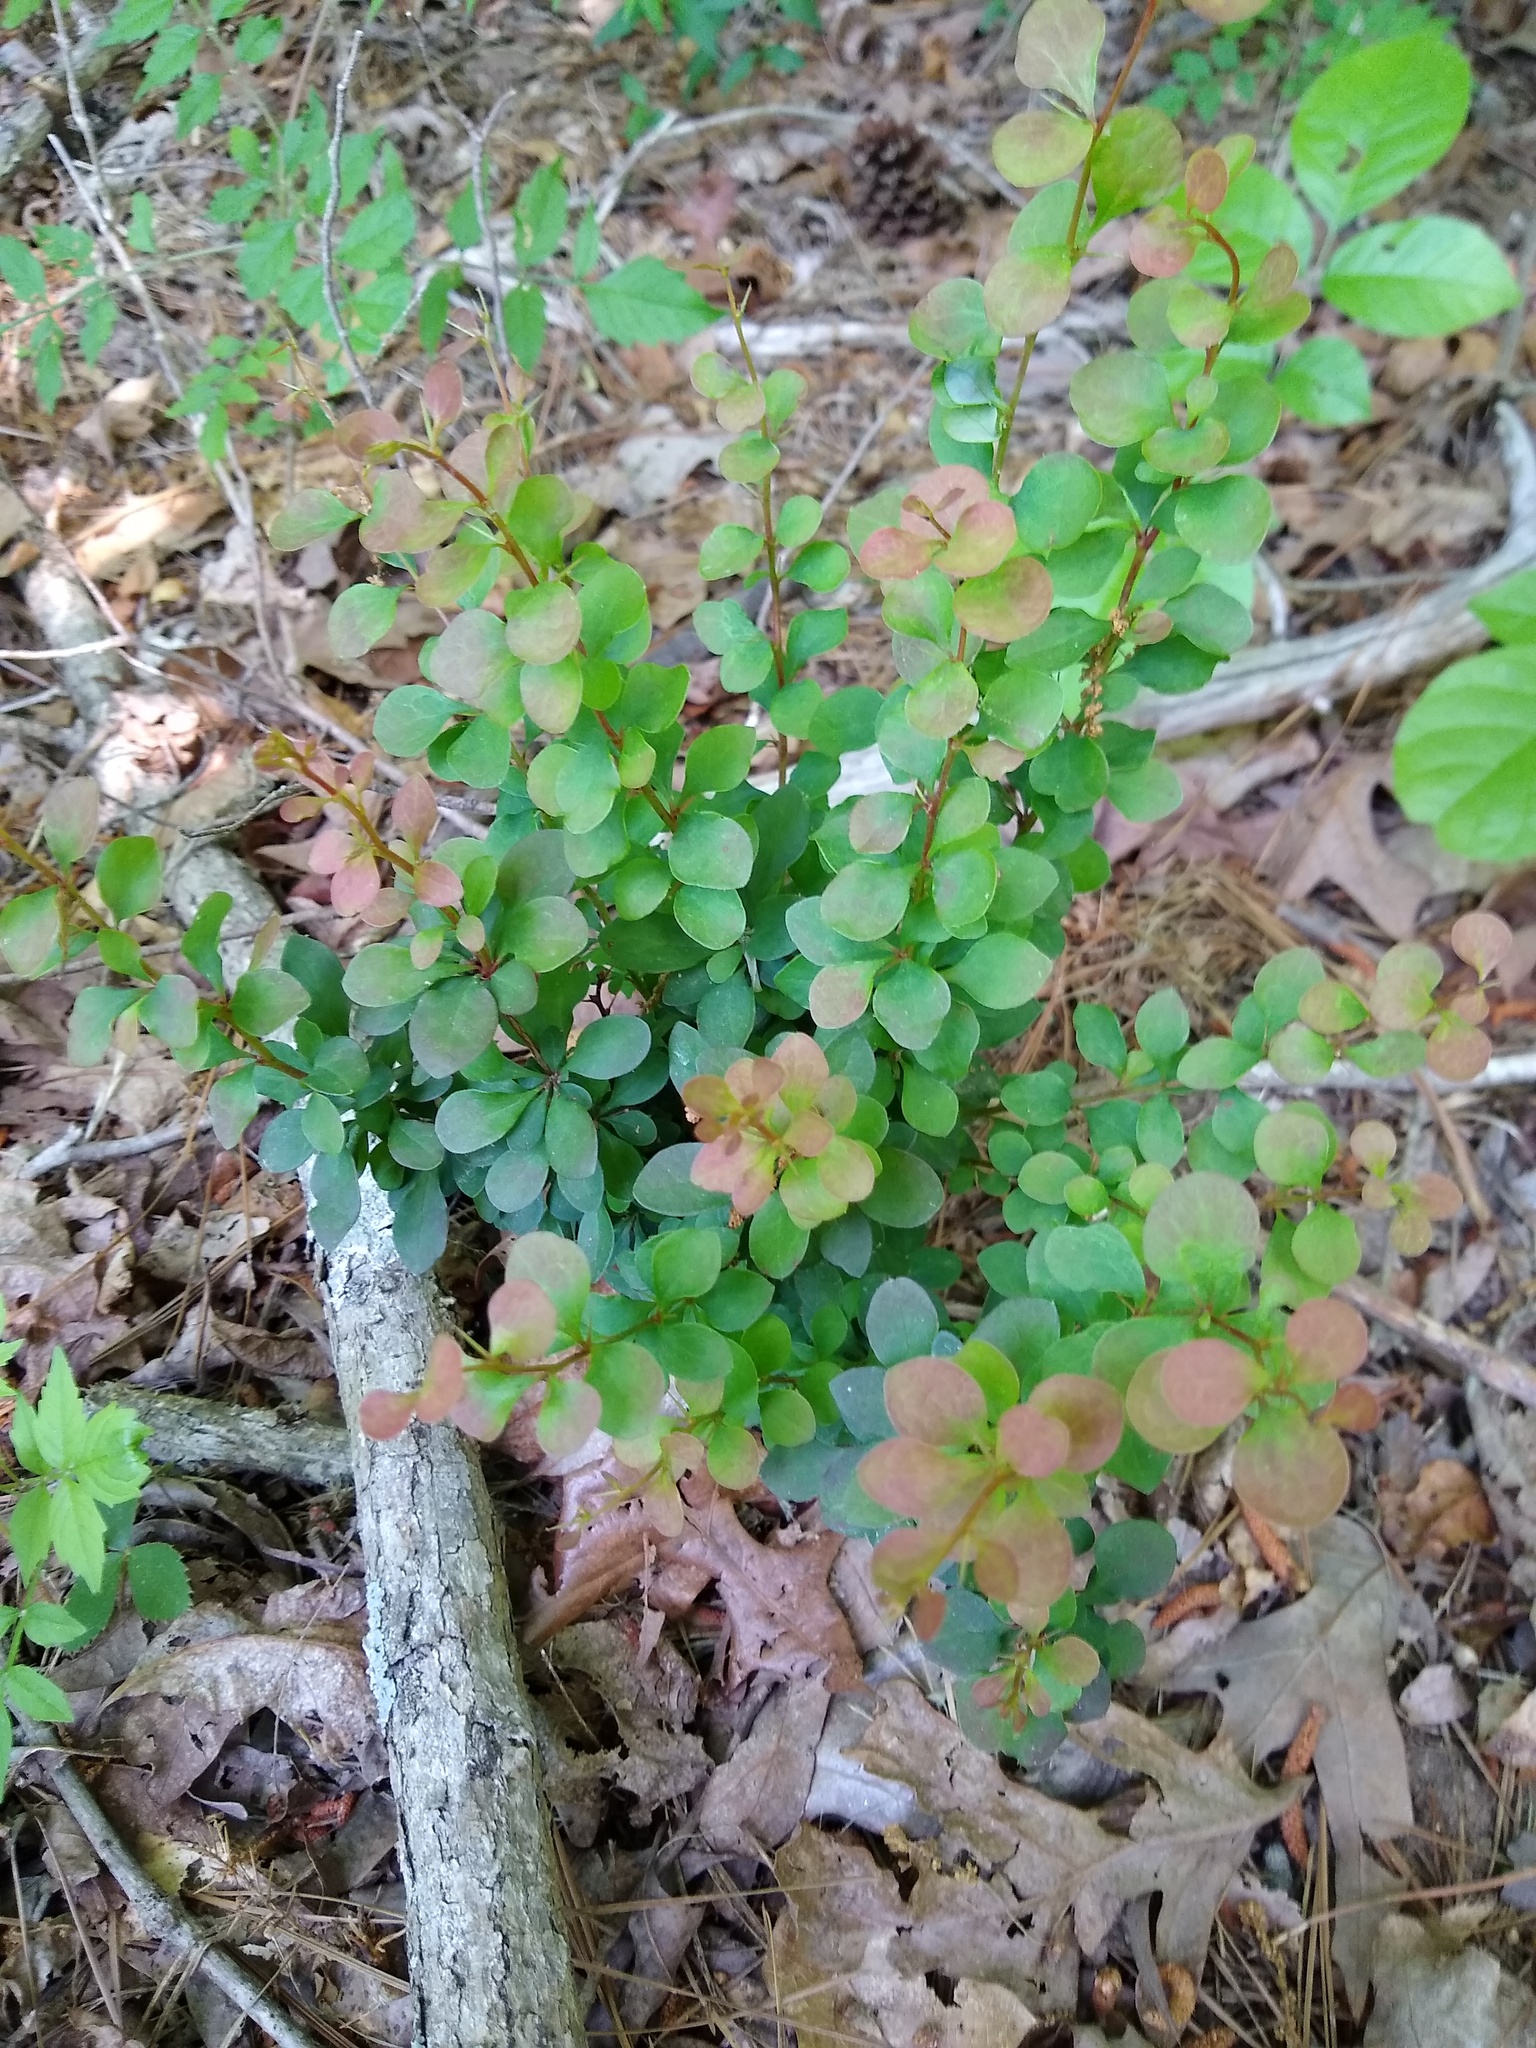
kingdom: Plantae
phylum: Tracheophyta
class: Magnoliopsida
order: Ranunculales
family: Berberidaceae
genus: Berberis
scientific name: Berberis thunbergii
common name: Japanese barberry
